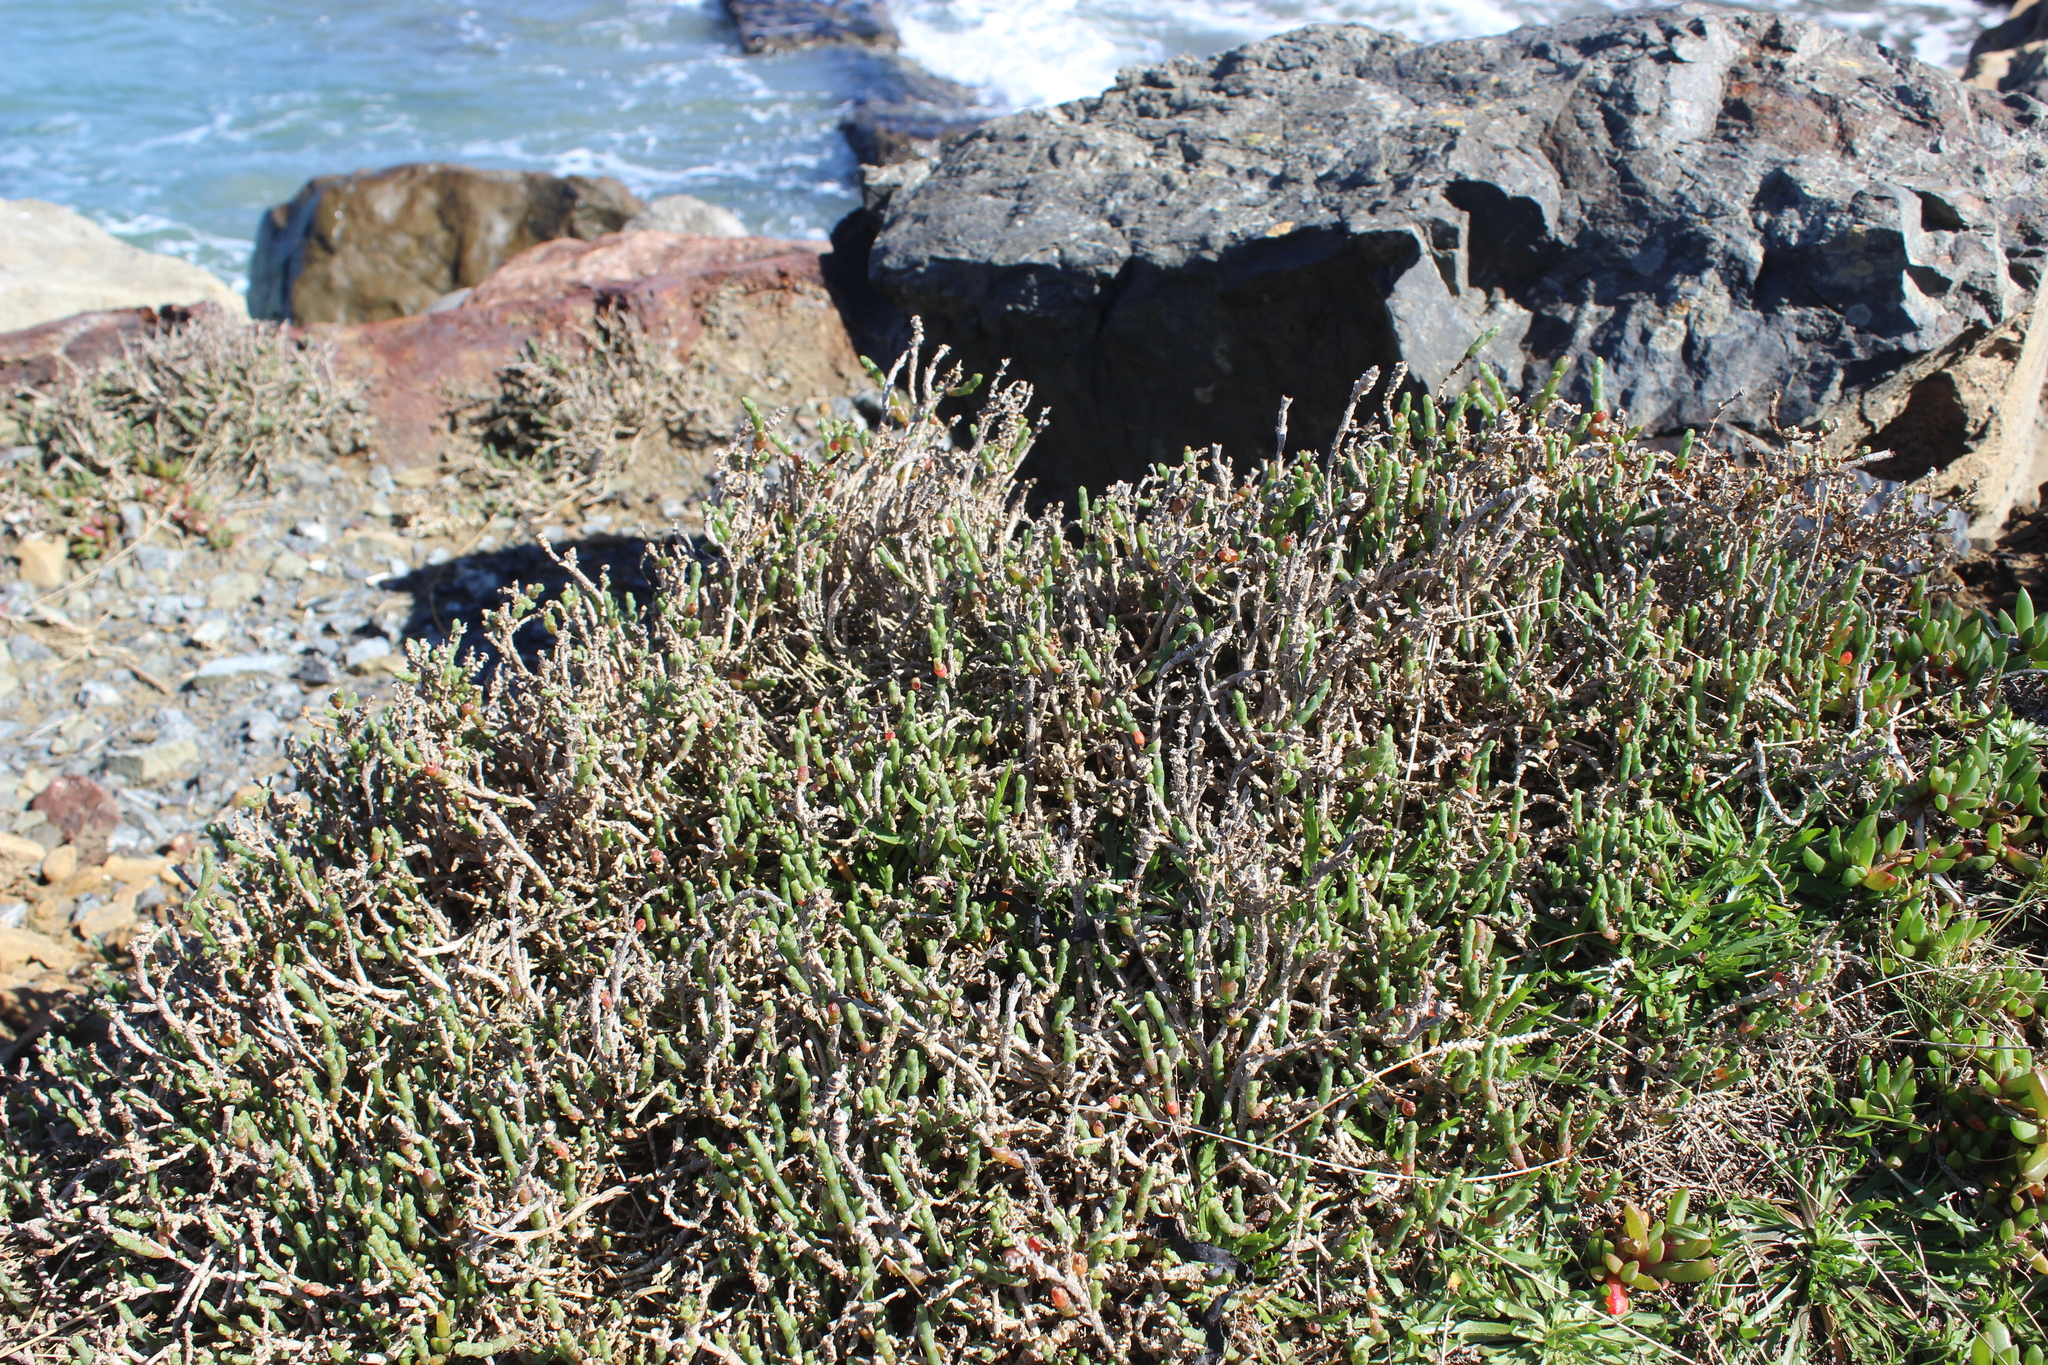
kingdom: Plantae
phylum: Tracheophyta
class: Magnoliopsida
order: Caryophyllales
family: Amaranthaceae
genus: Salicornia
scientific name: Salicornia quinqueflora
